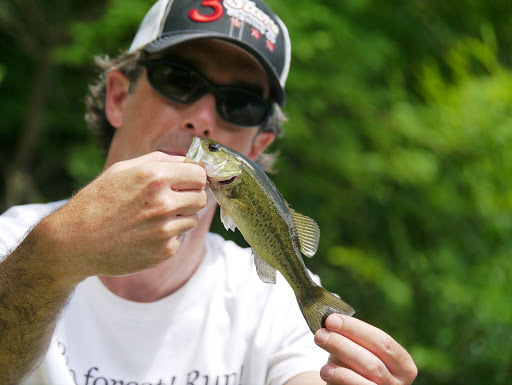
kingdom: Animalia
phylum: Chordata
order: Perciformes
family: Centrarchidae
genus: Micropterus
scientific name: Micropterus
